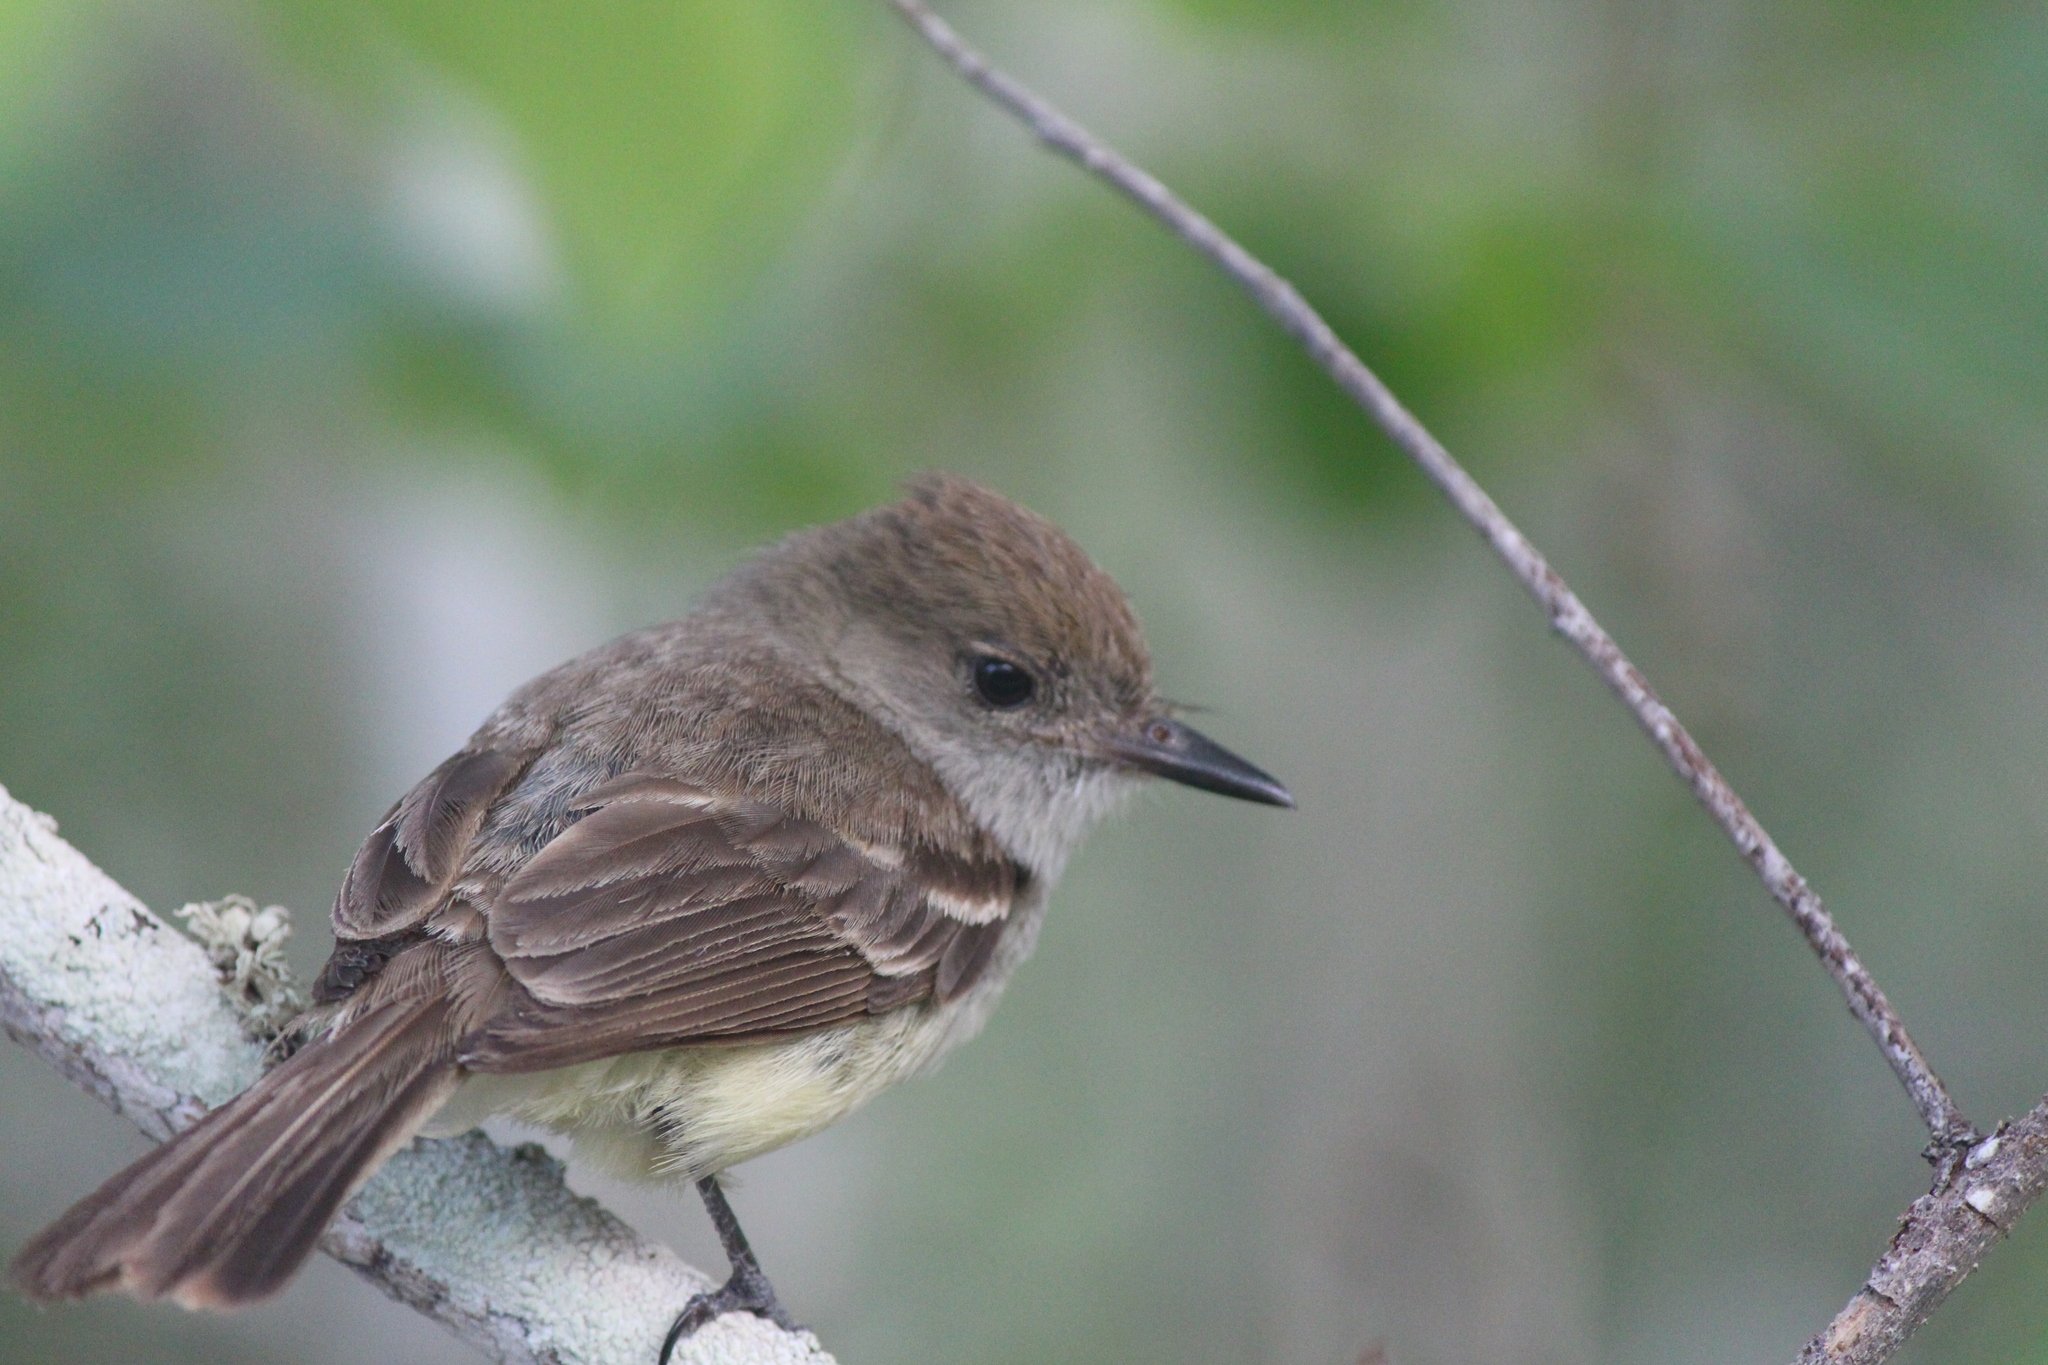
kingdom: Animalia
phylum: Chordata
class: Aves
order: Passeriformes
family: Tyrannidae
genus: Myiarchus
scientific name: Myiarchus magnirostris
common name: Galapagos flycatcher
